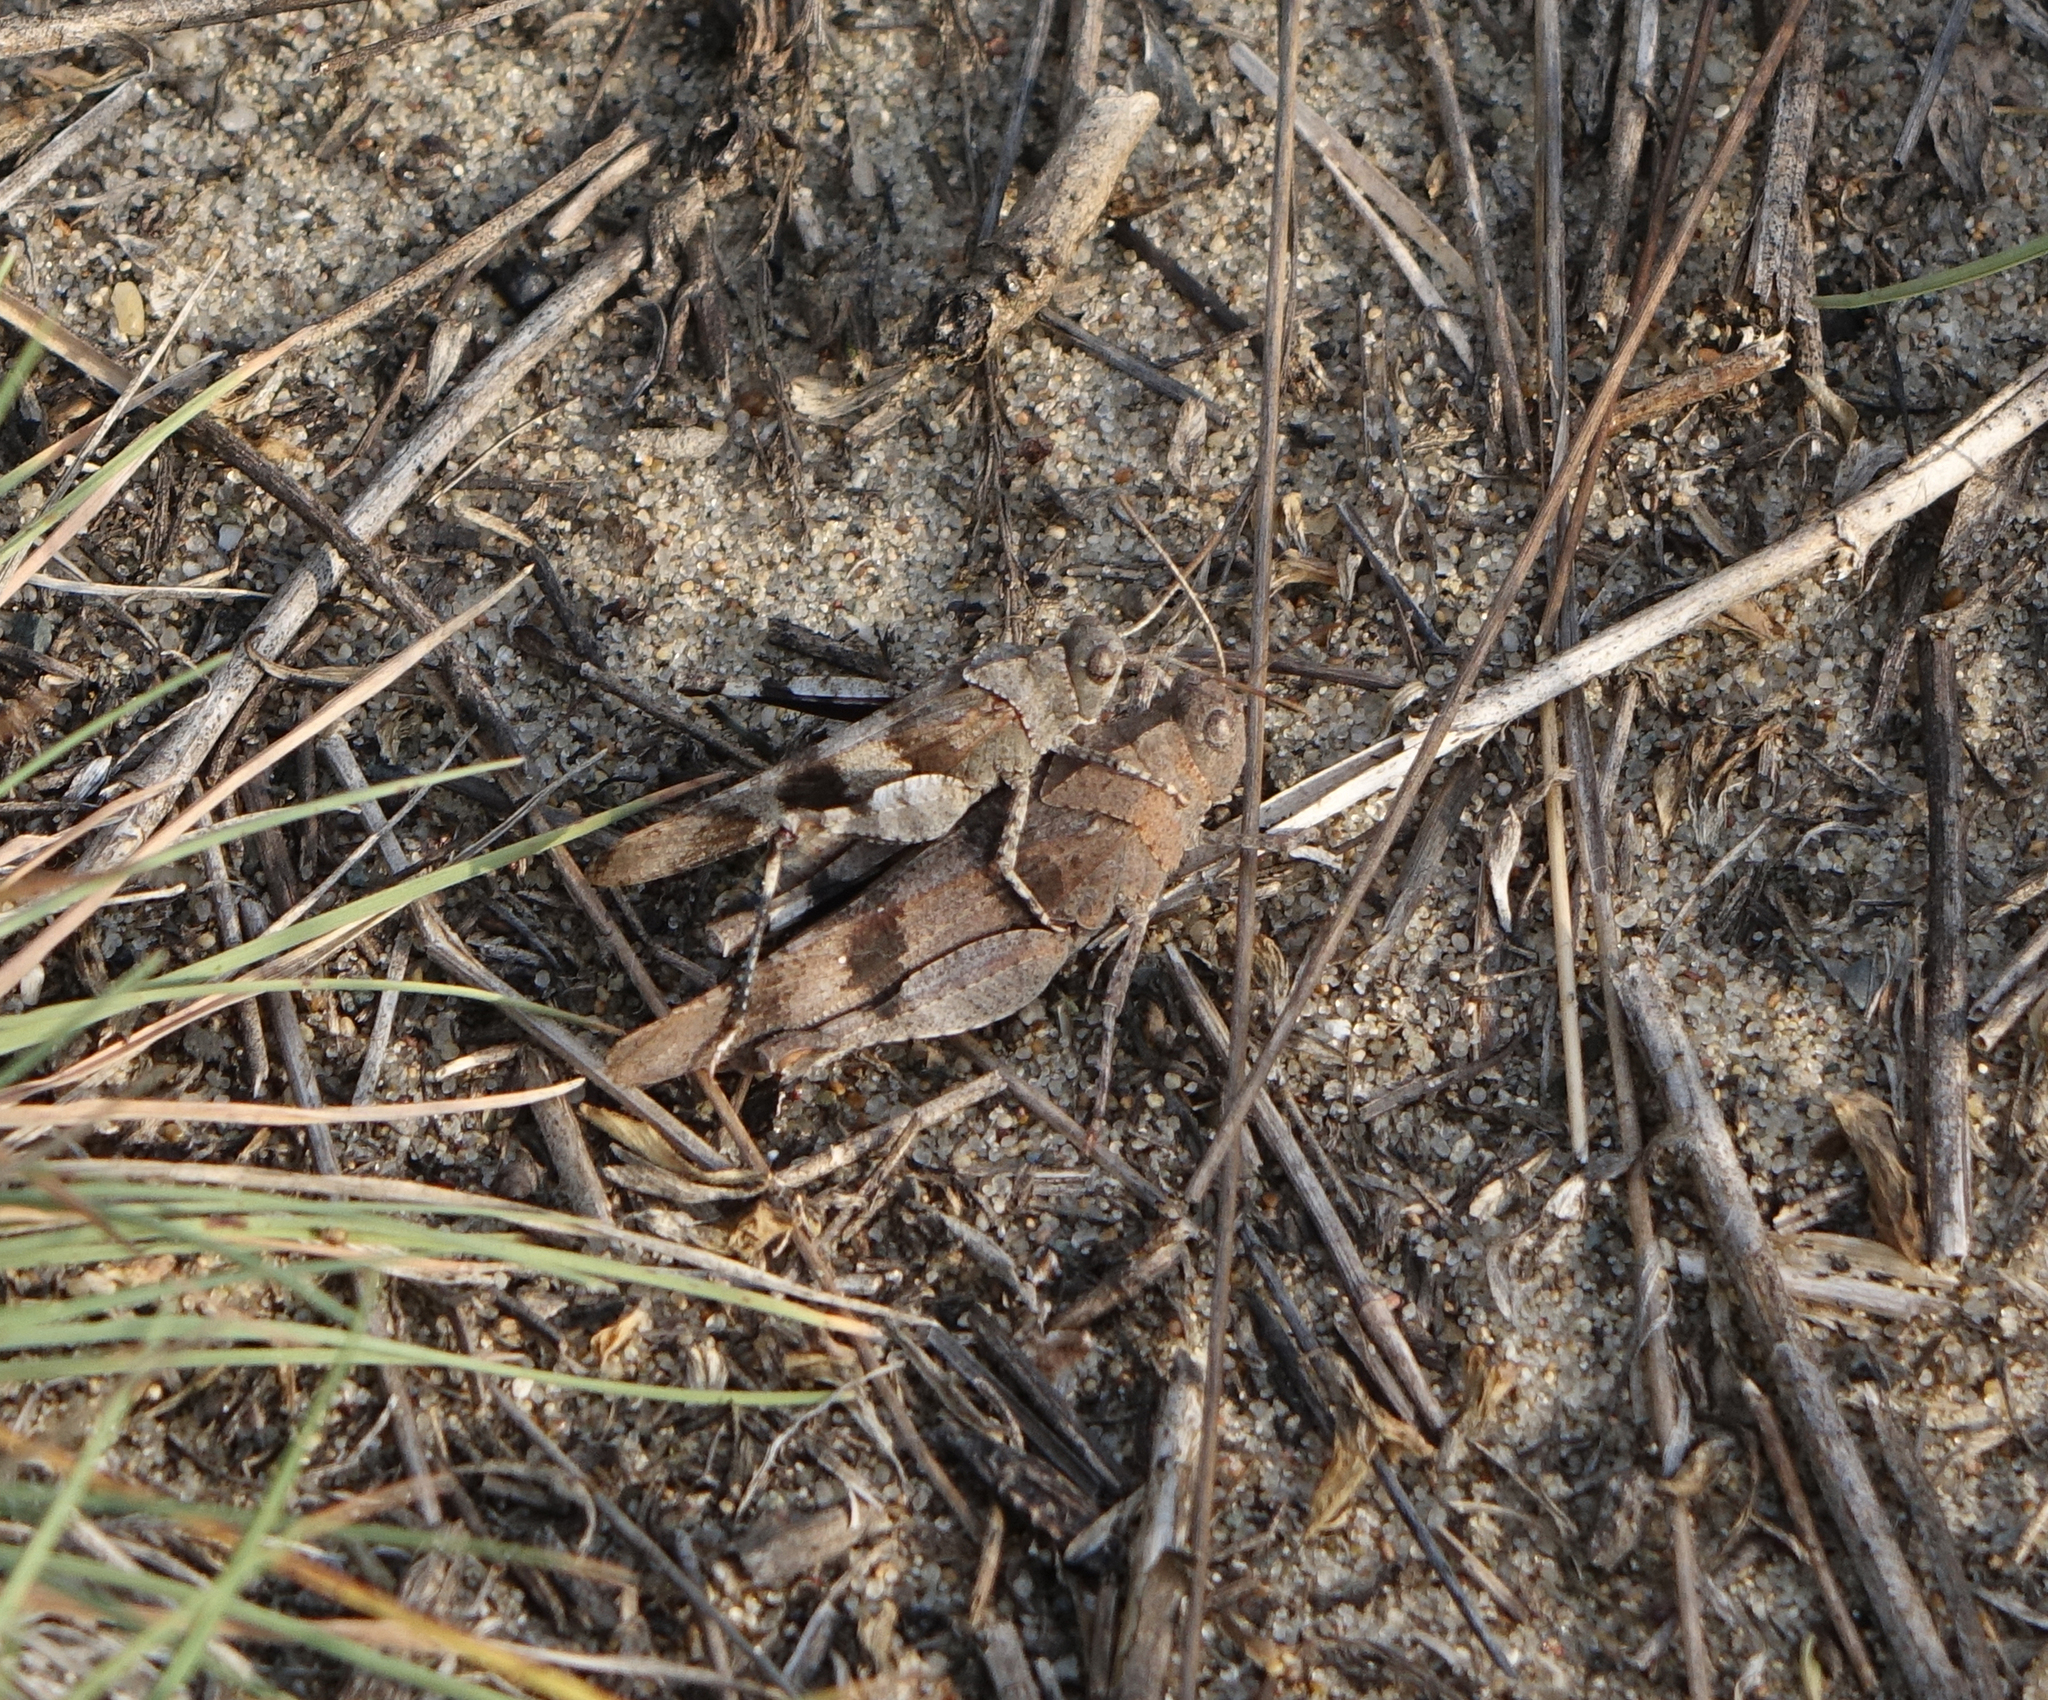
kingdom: Animalia
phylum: Arthropoda
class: Insecta
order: Orthoptera
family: Acrididae
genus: Oedipoda
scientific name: Oedipoda caerulescens
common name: Blue-winged grasshopper
